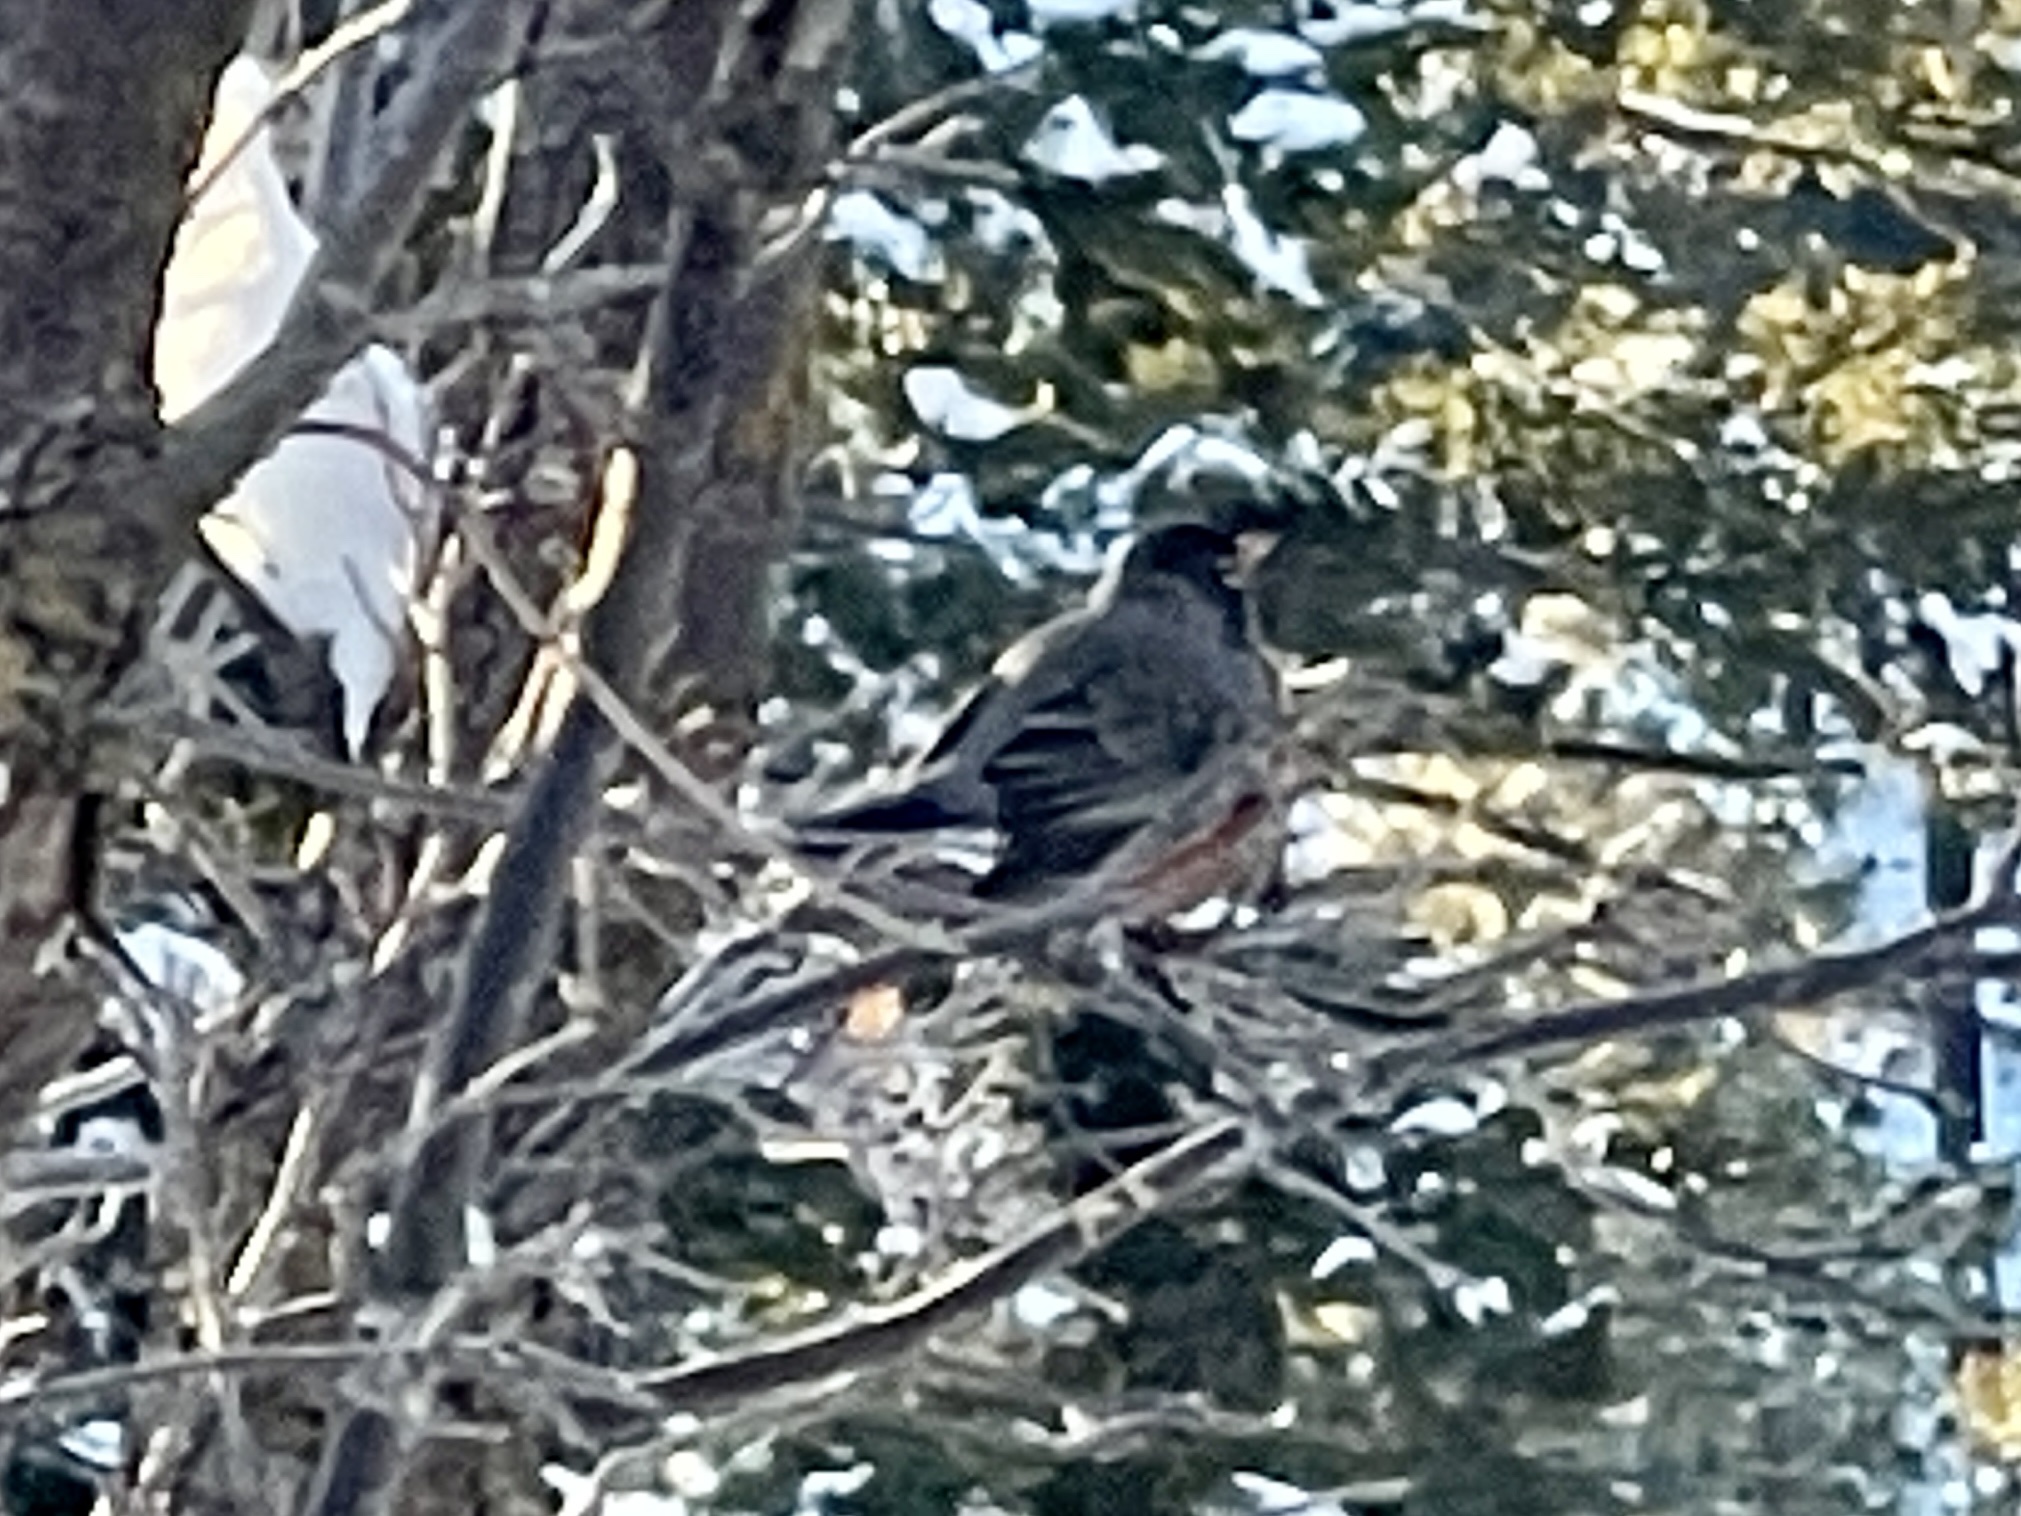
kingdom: Animalia
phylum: Chordata
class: Aves
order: Passeriformes
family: Turdidae
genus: Turdus
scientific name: Turdus migratorius
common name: American robin
